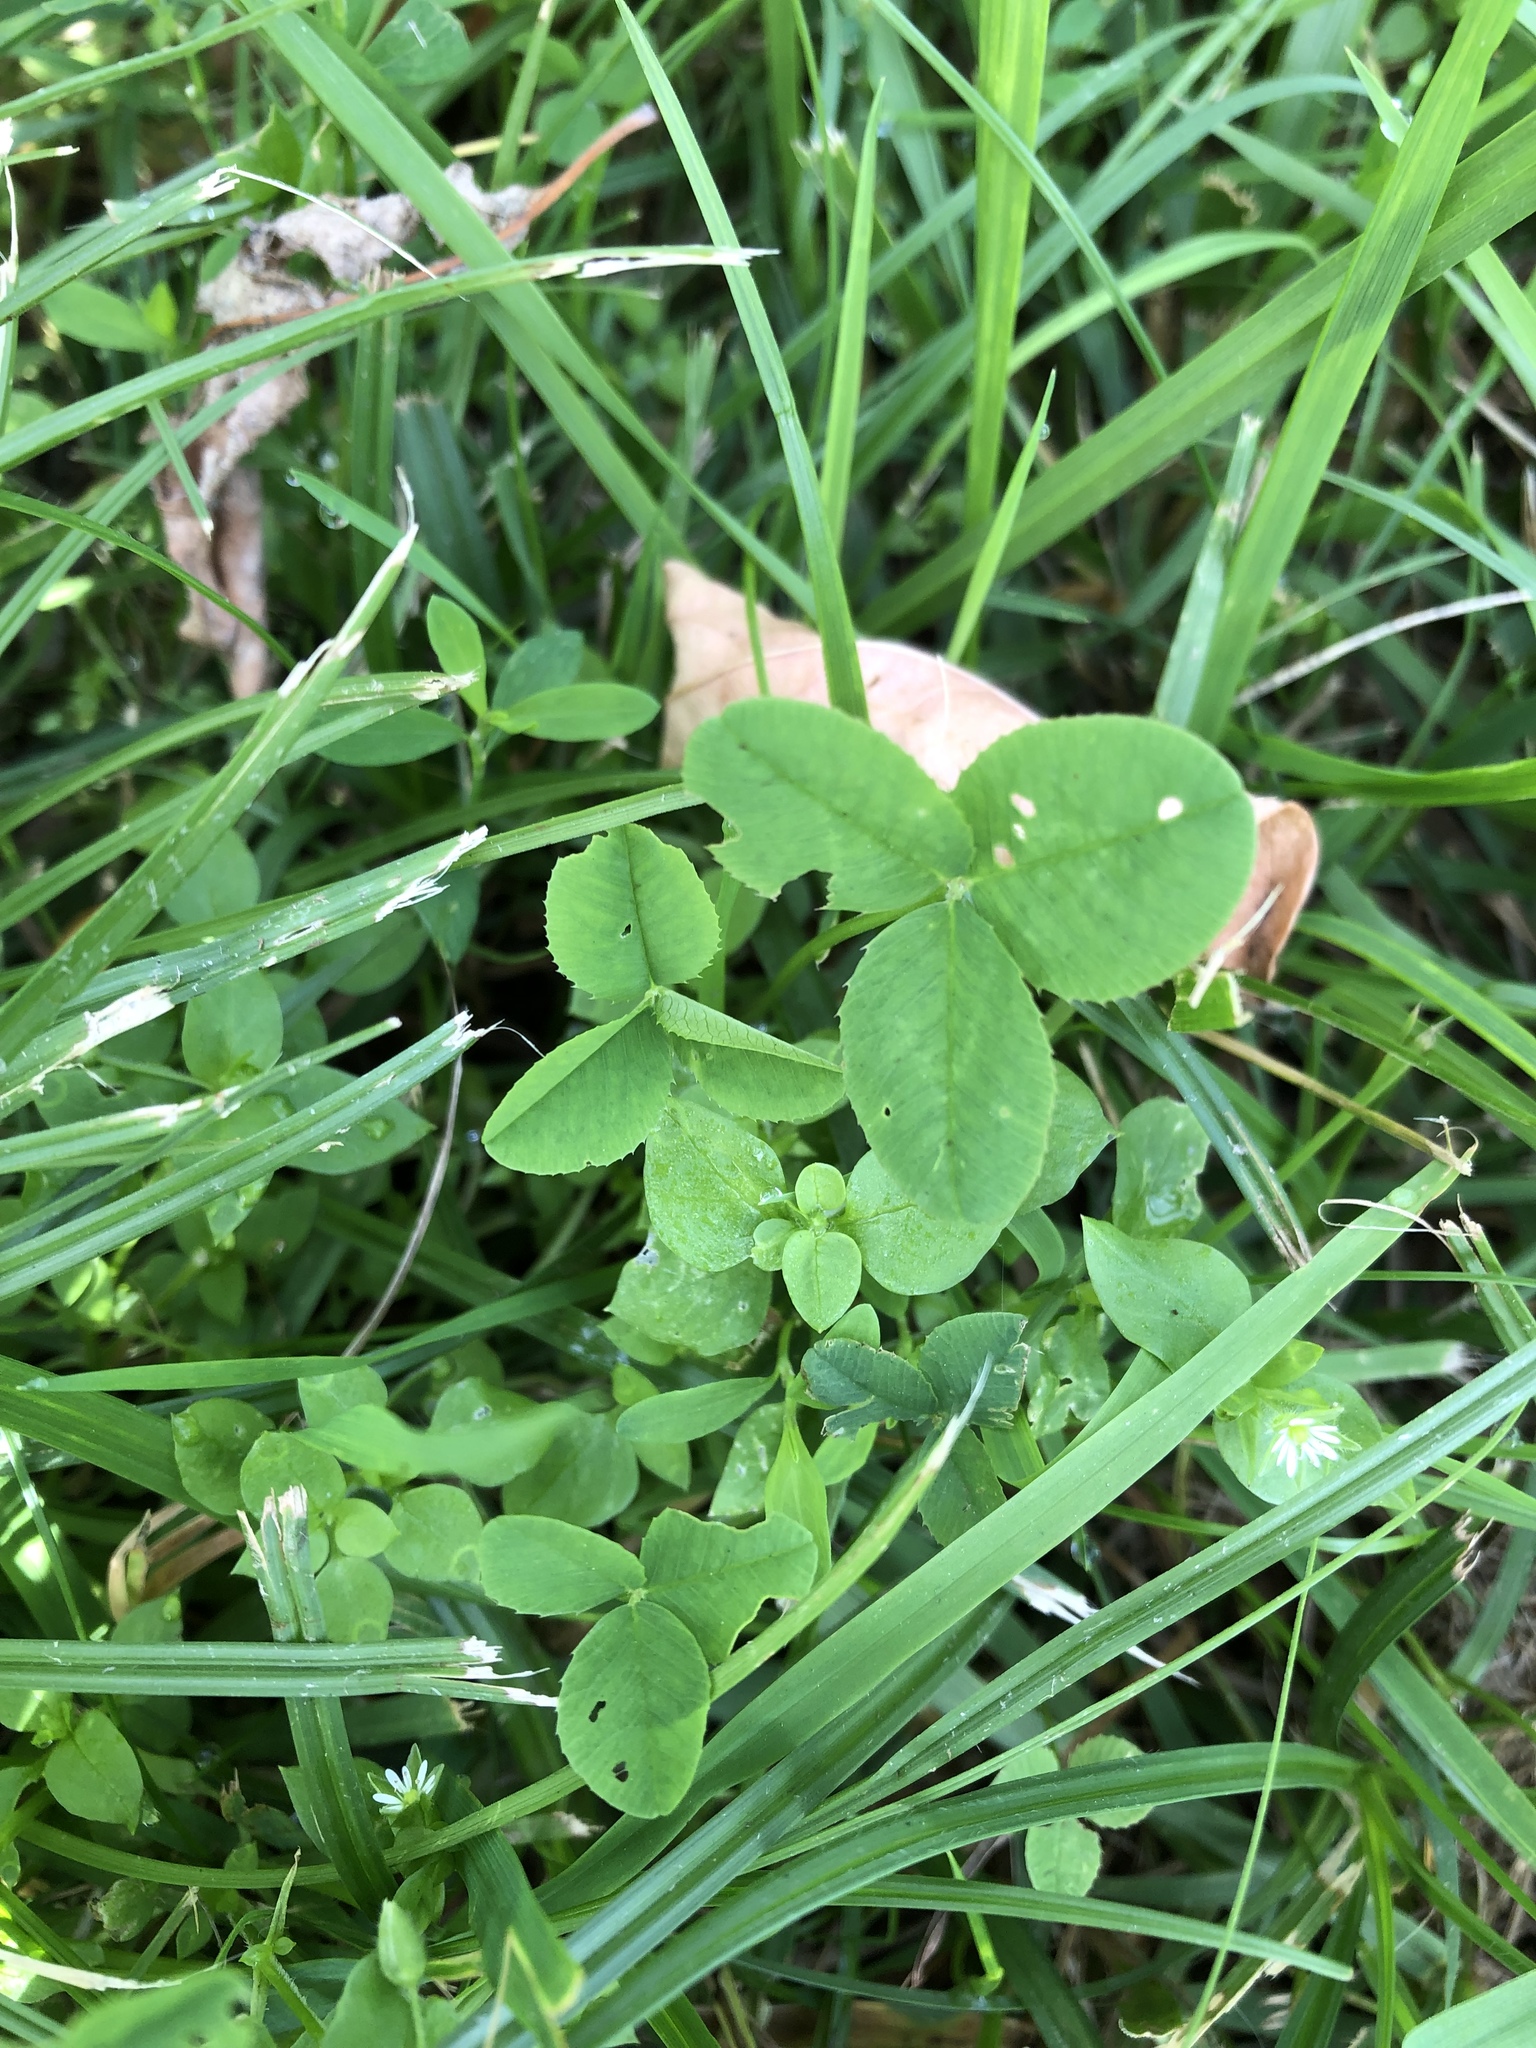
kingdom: Plantae
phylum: Tracheophyta
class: Magnoliopsida
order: Fabales
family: Fabaceae
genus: Trifolium
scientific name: Trifolium repens
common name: White clover
